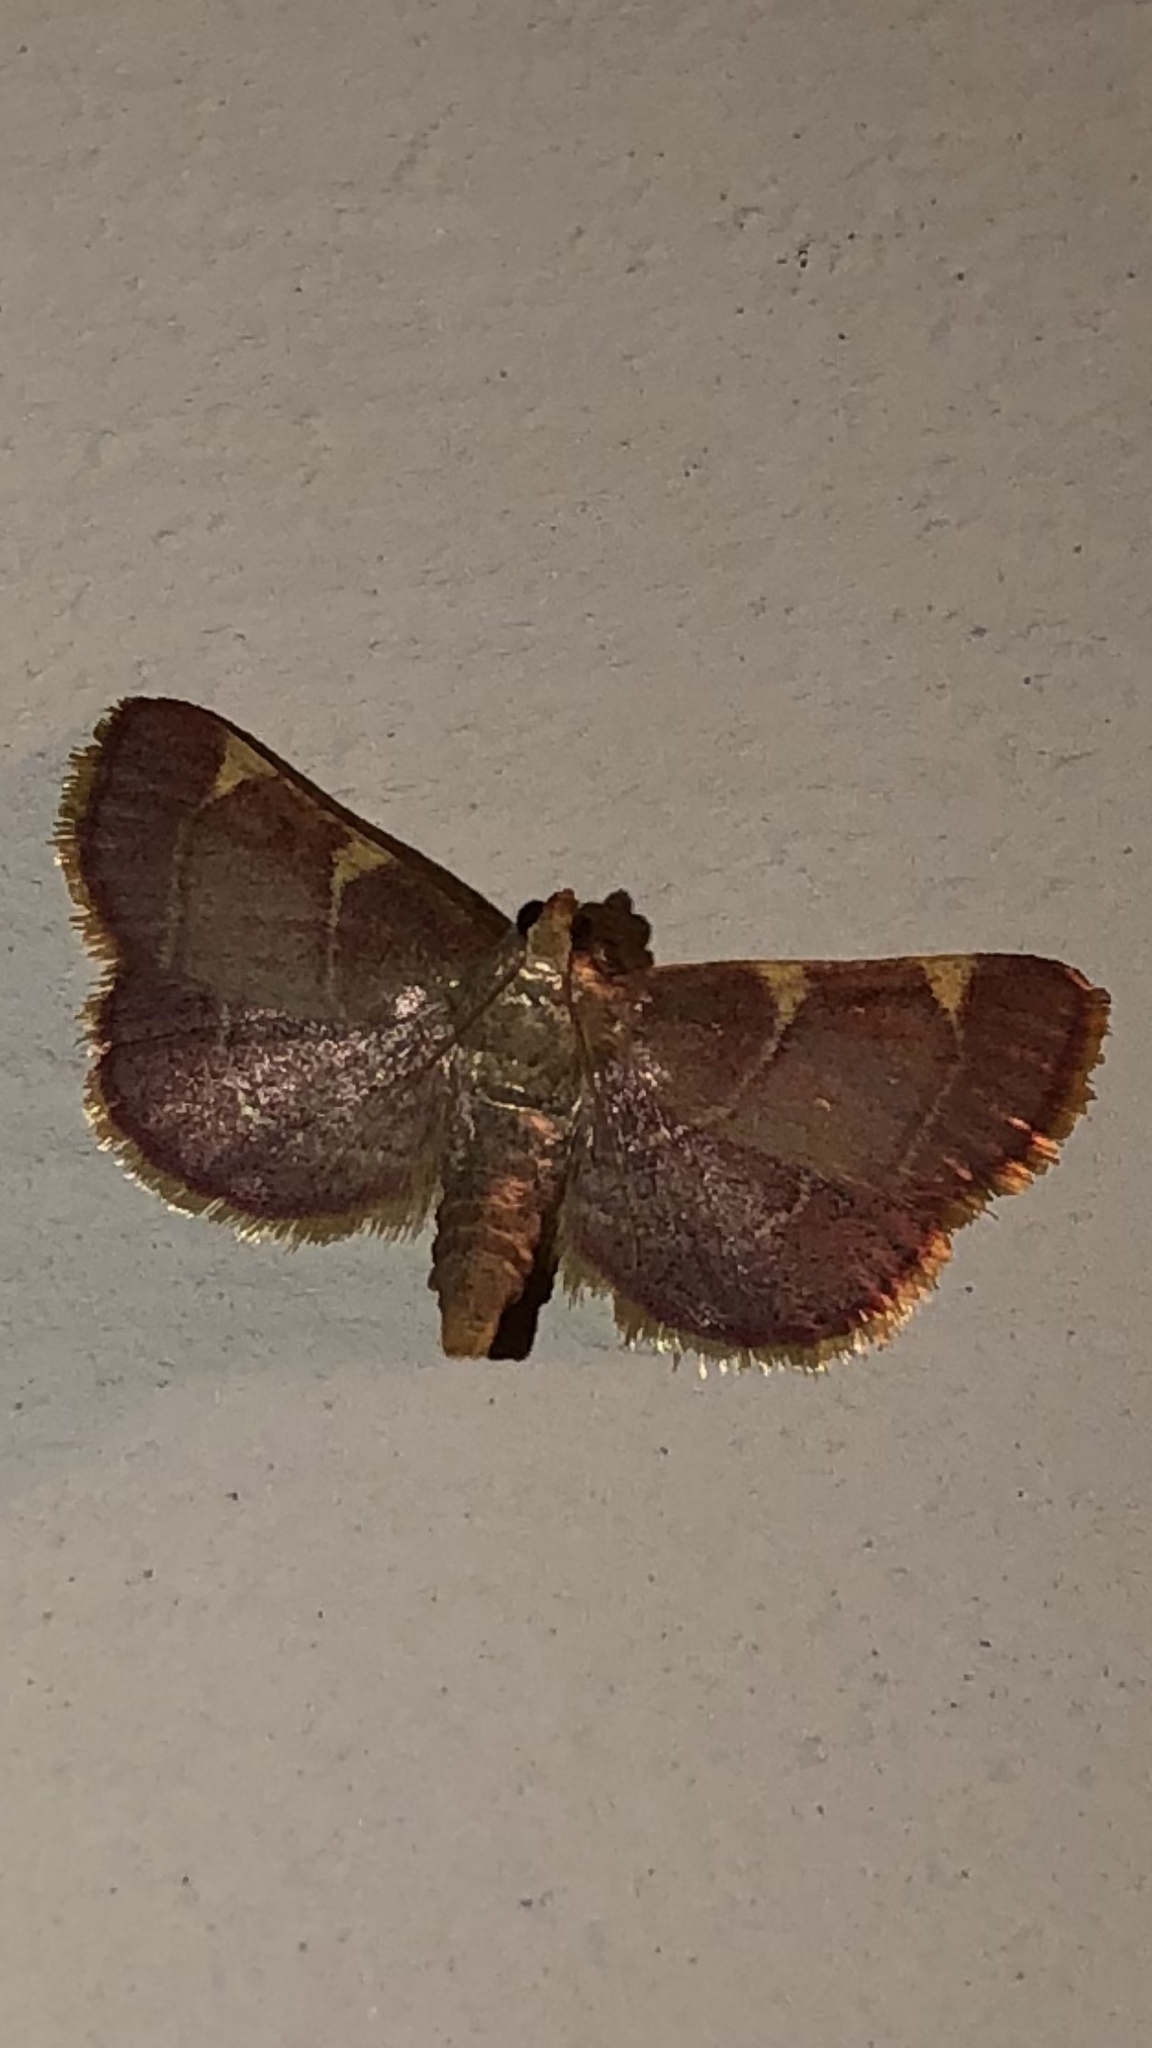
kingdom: Animalia
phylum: Arthropoda
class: Insecta
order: Lepidoptera
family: Pyralidae
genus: Hypsopygia
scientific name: Hypsopygia olinalis
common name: Yellow-fringed dolichomia moth
